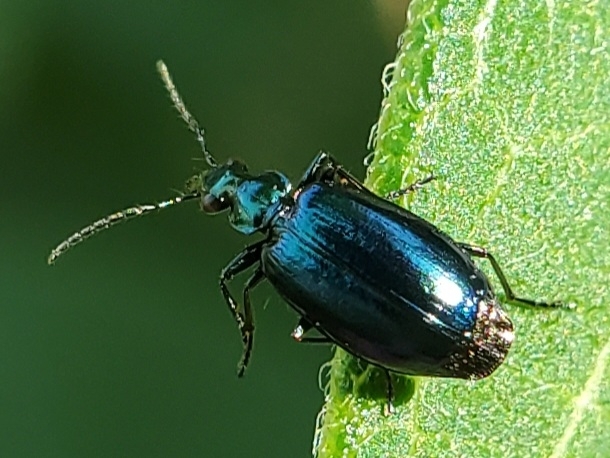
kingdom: Animalia
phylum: Arthropoda
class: Insecta
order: Coleoptera
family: Carabidae
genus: Lebia
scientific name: Lebia viridis
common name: Flower lebia beetle
